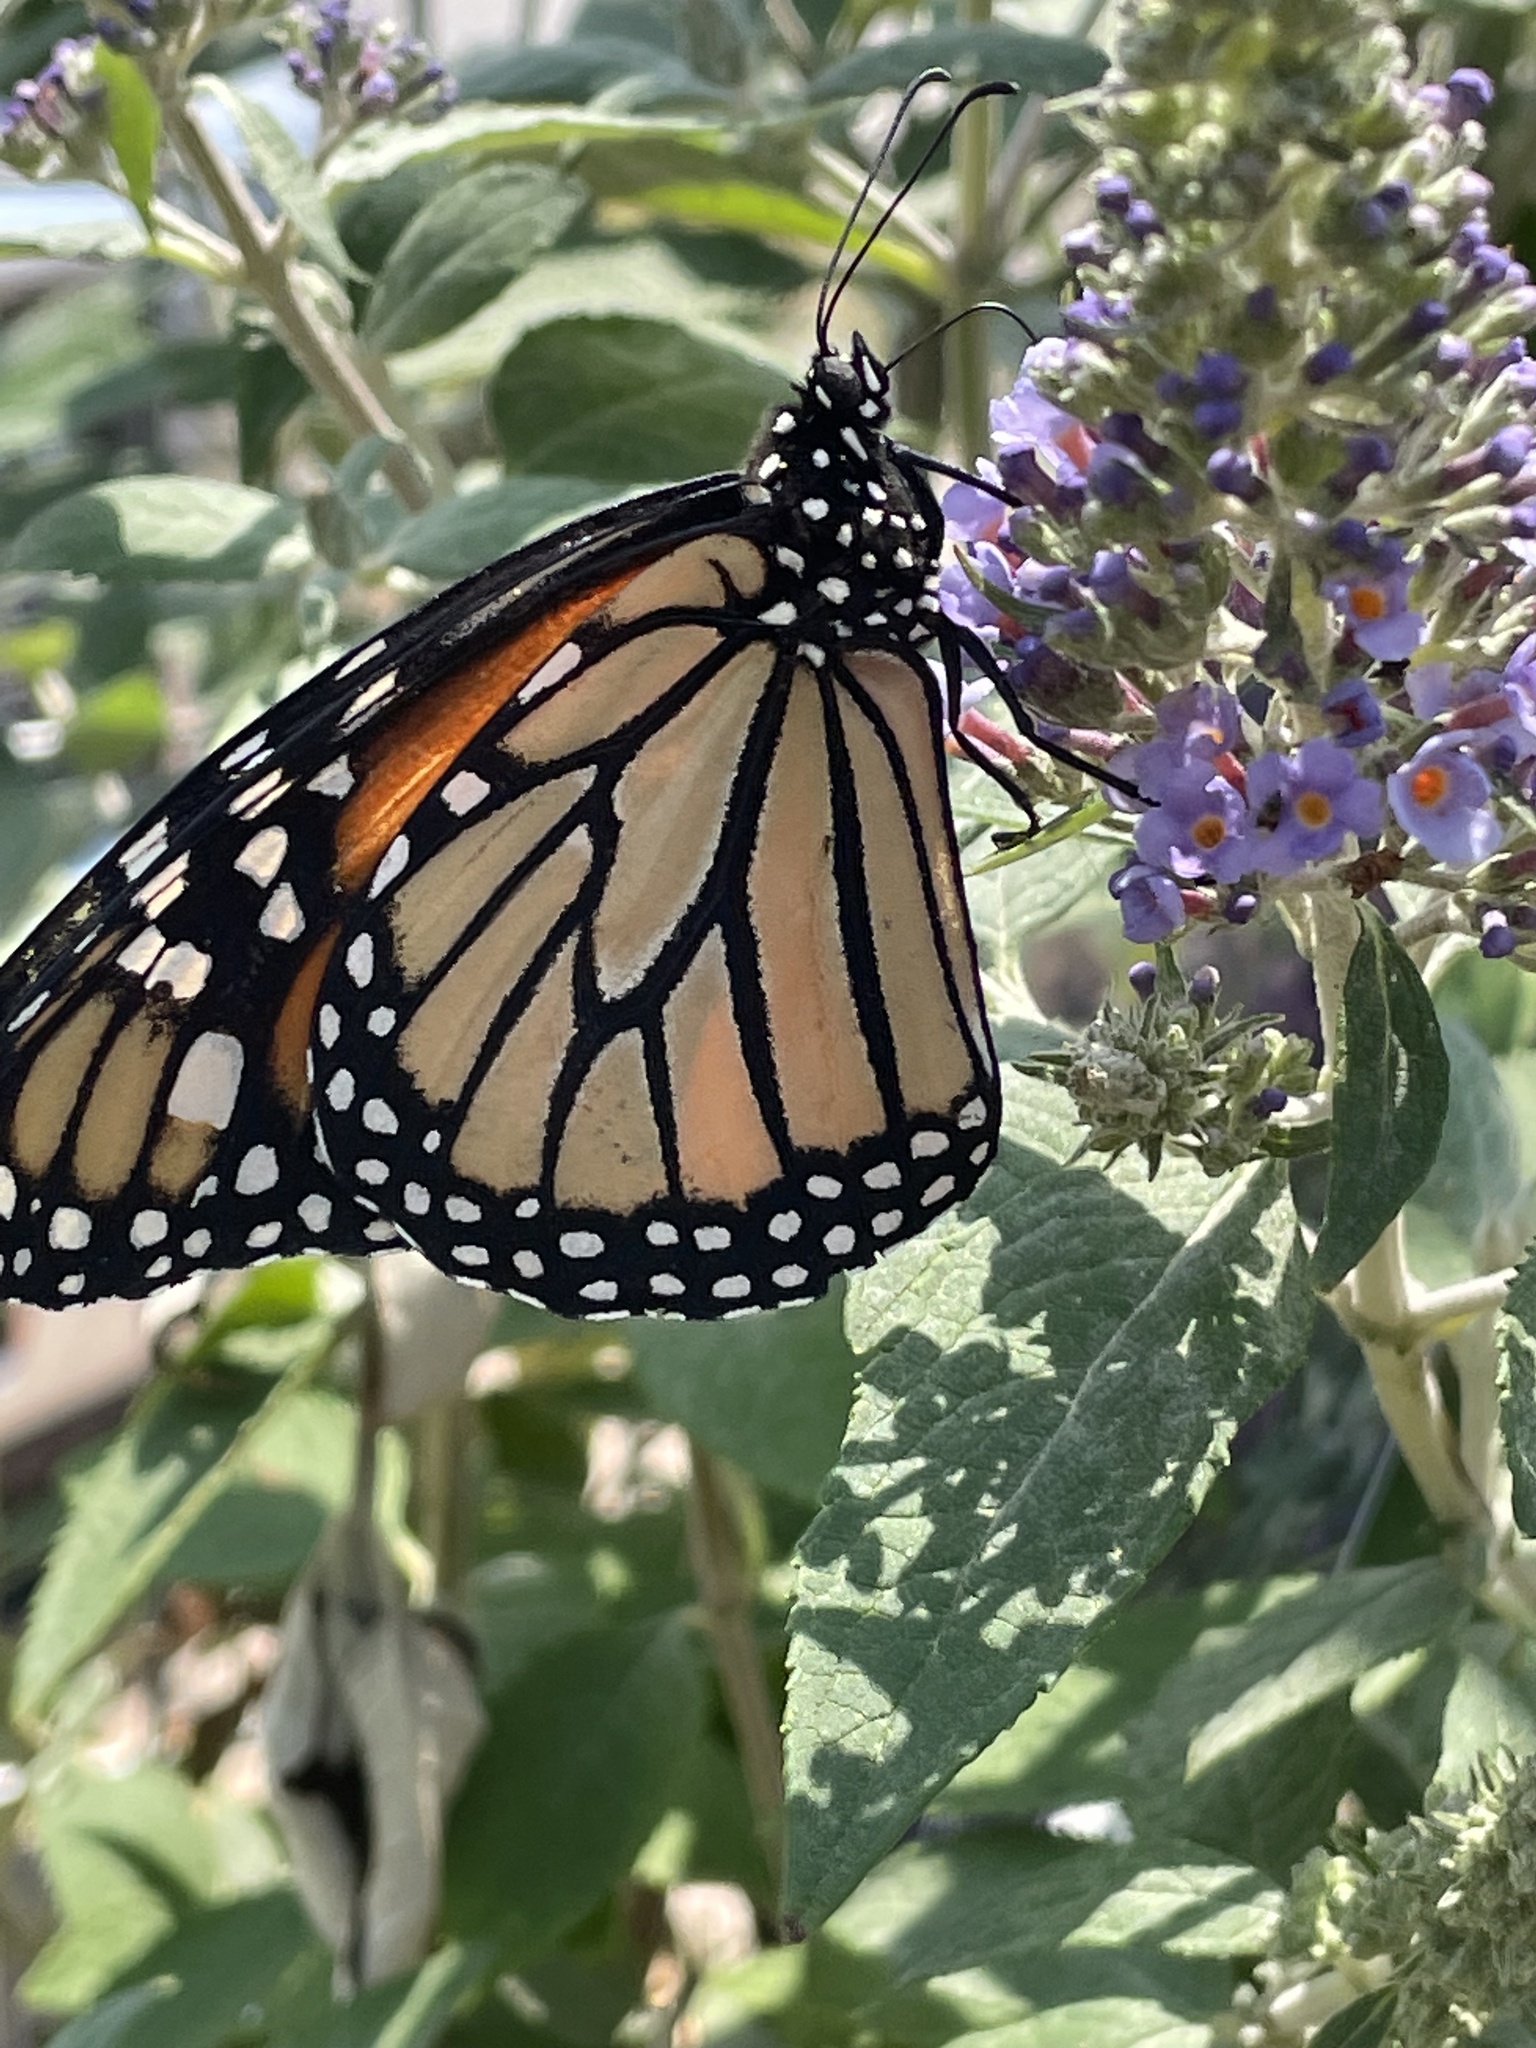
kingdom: Animalia
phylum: Arthropoda
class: Insecta
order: Lepidoptera
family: Nymphalidae
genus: Danaus
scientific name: Danaus plexippus
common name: Monarch
